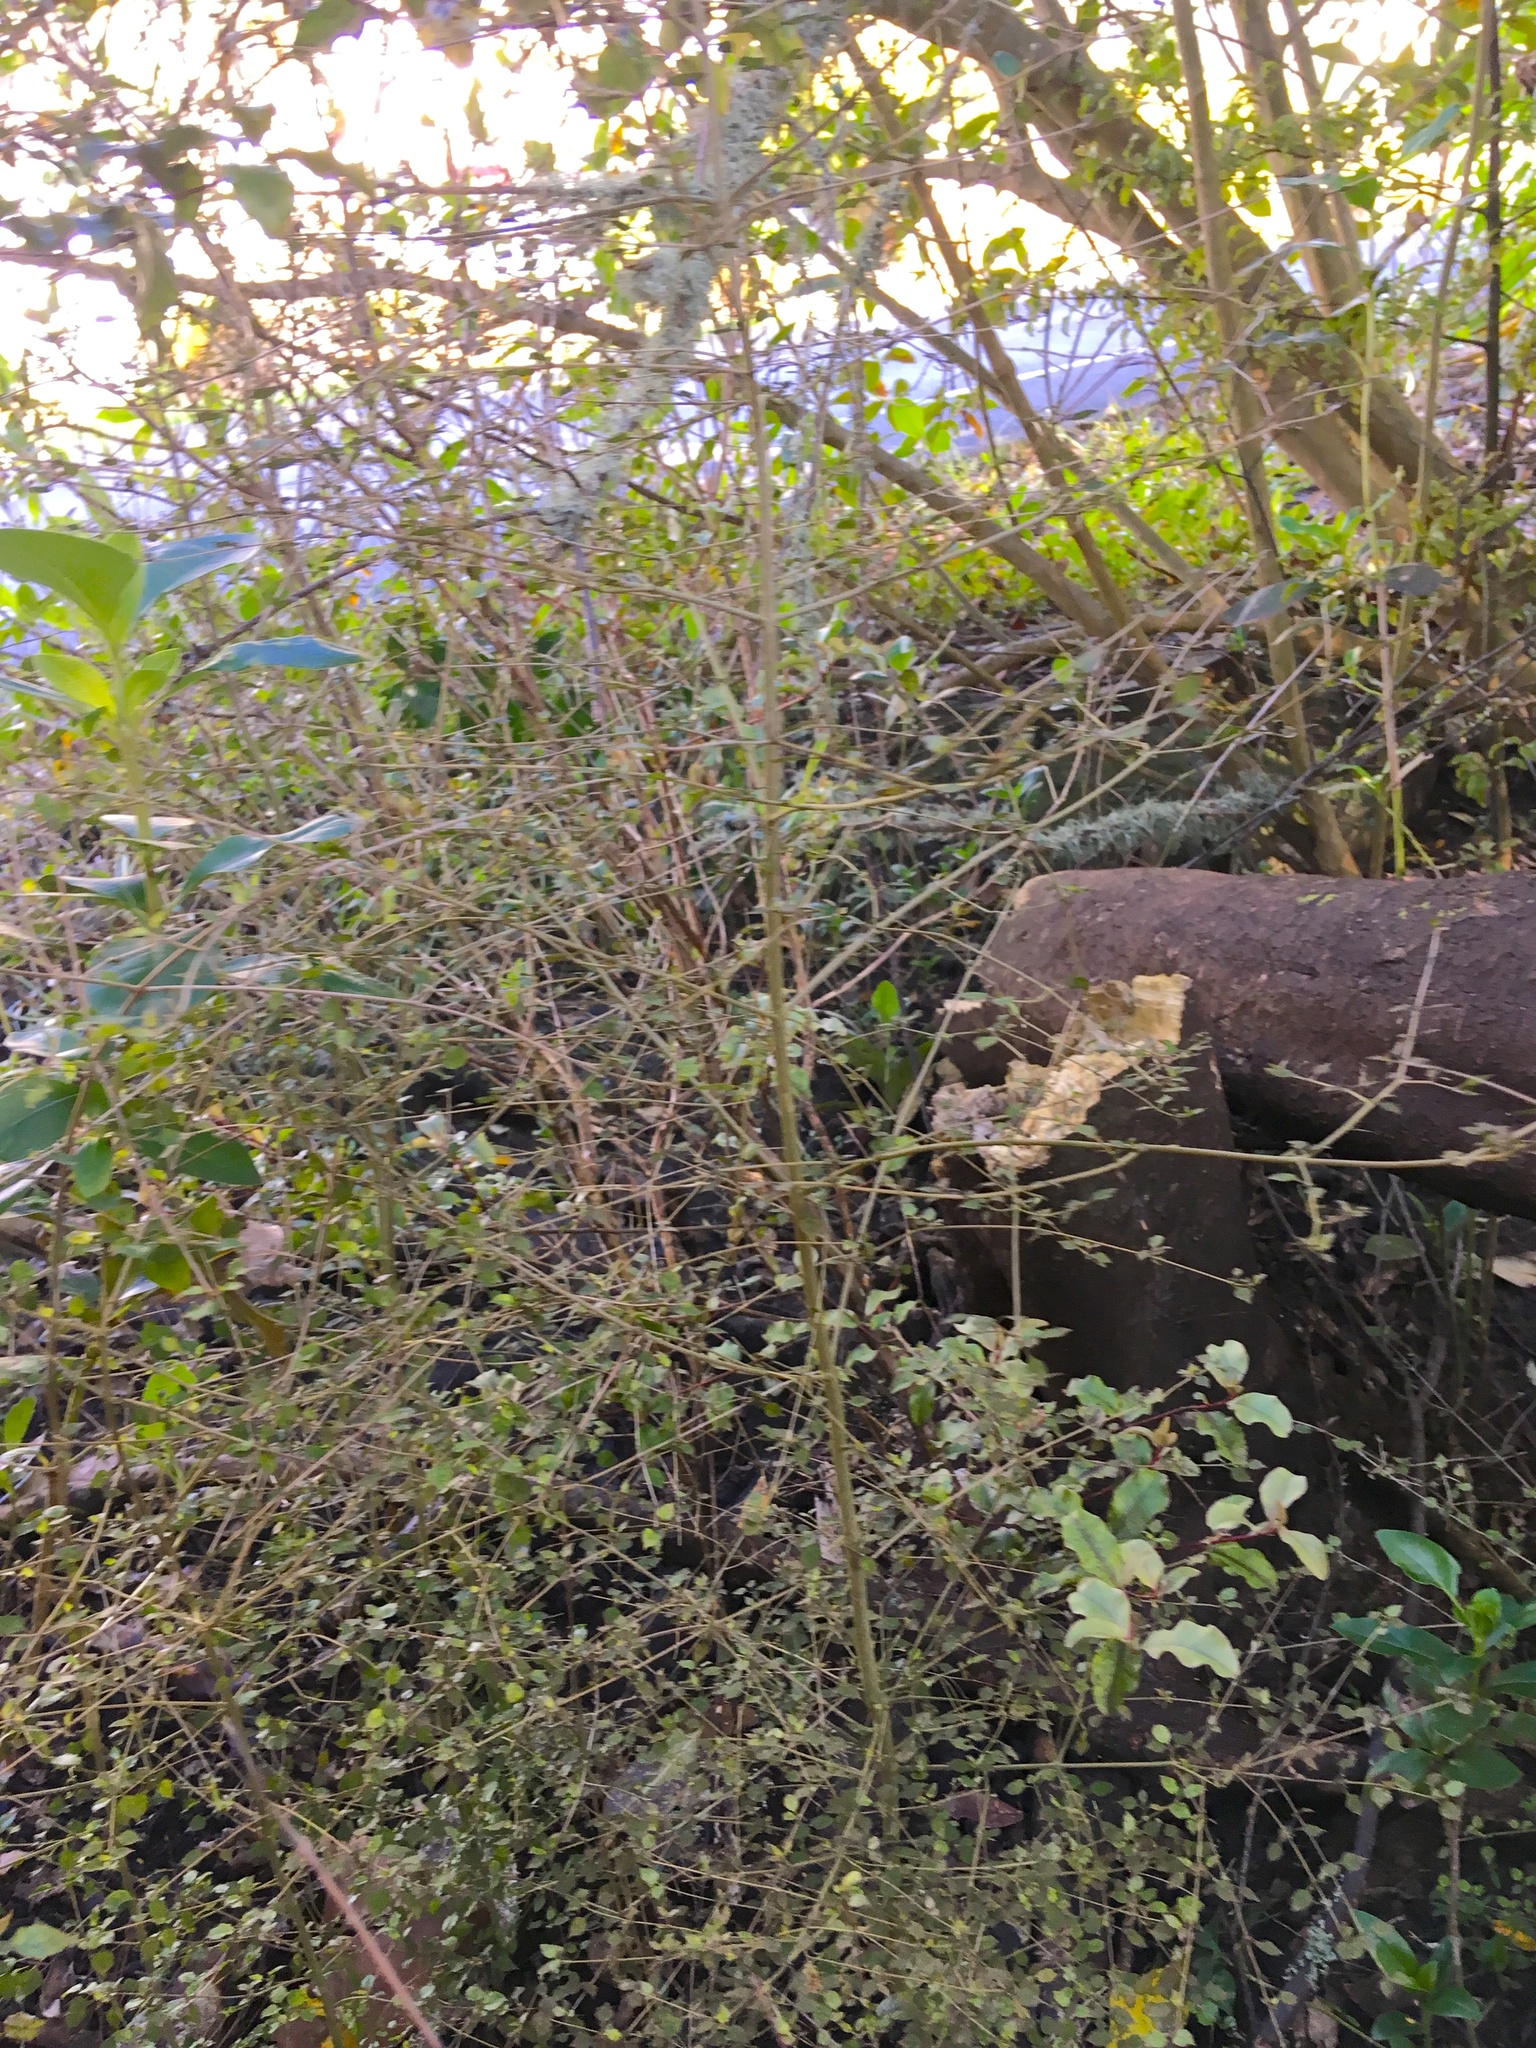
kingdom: Plantae
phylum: Tracheophyta
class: Magnoliopsida
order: Gentianales
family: Rubiaceae
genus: Coprosma
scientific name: Coprosma areolata
